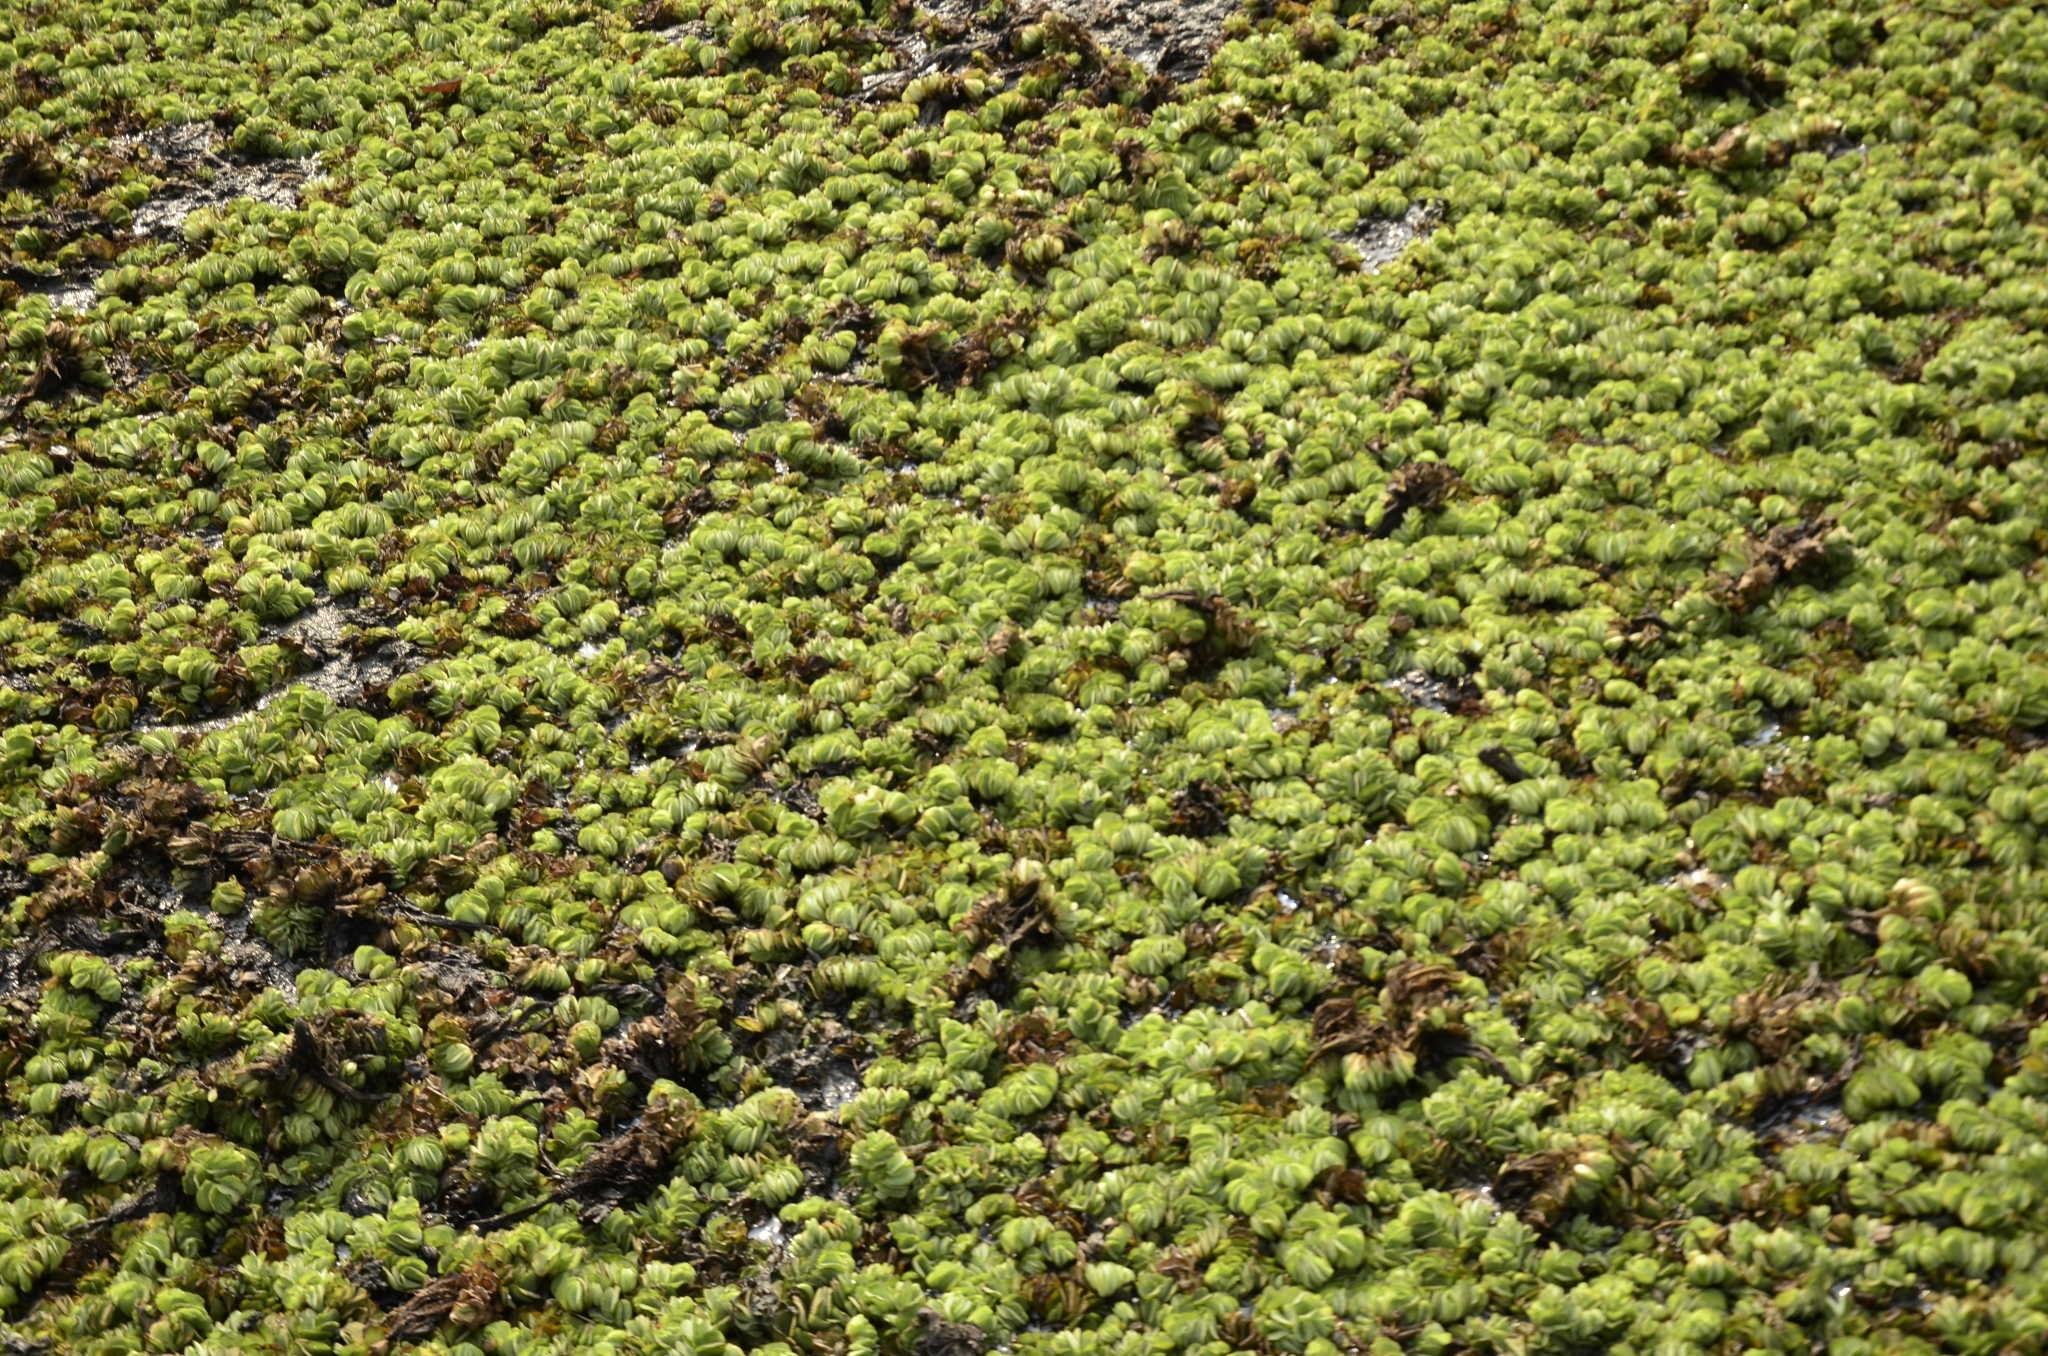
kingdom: Plantae
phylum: Tracheophyta
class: Polypodiopsida
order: Salviniales
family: Salviniaceae
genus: Salvinia
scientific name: Salvinia molesta
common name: Kariba weed
